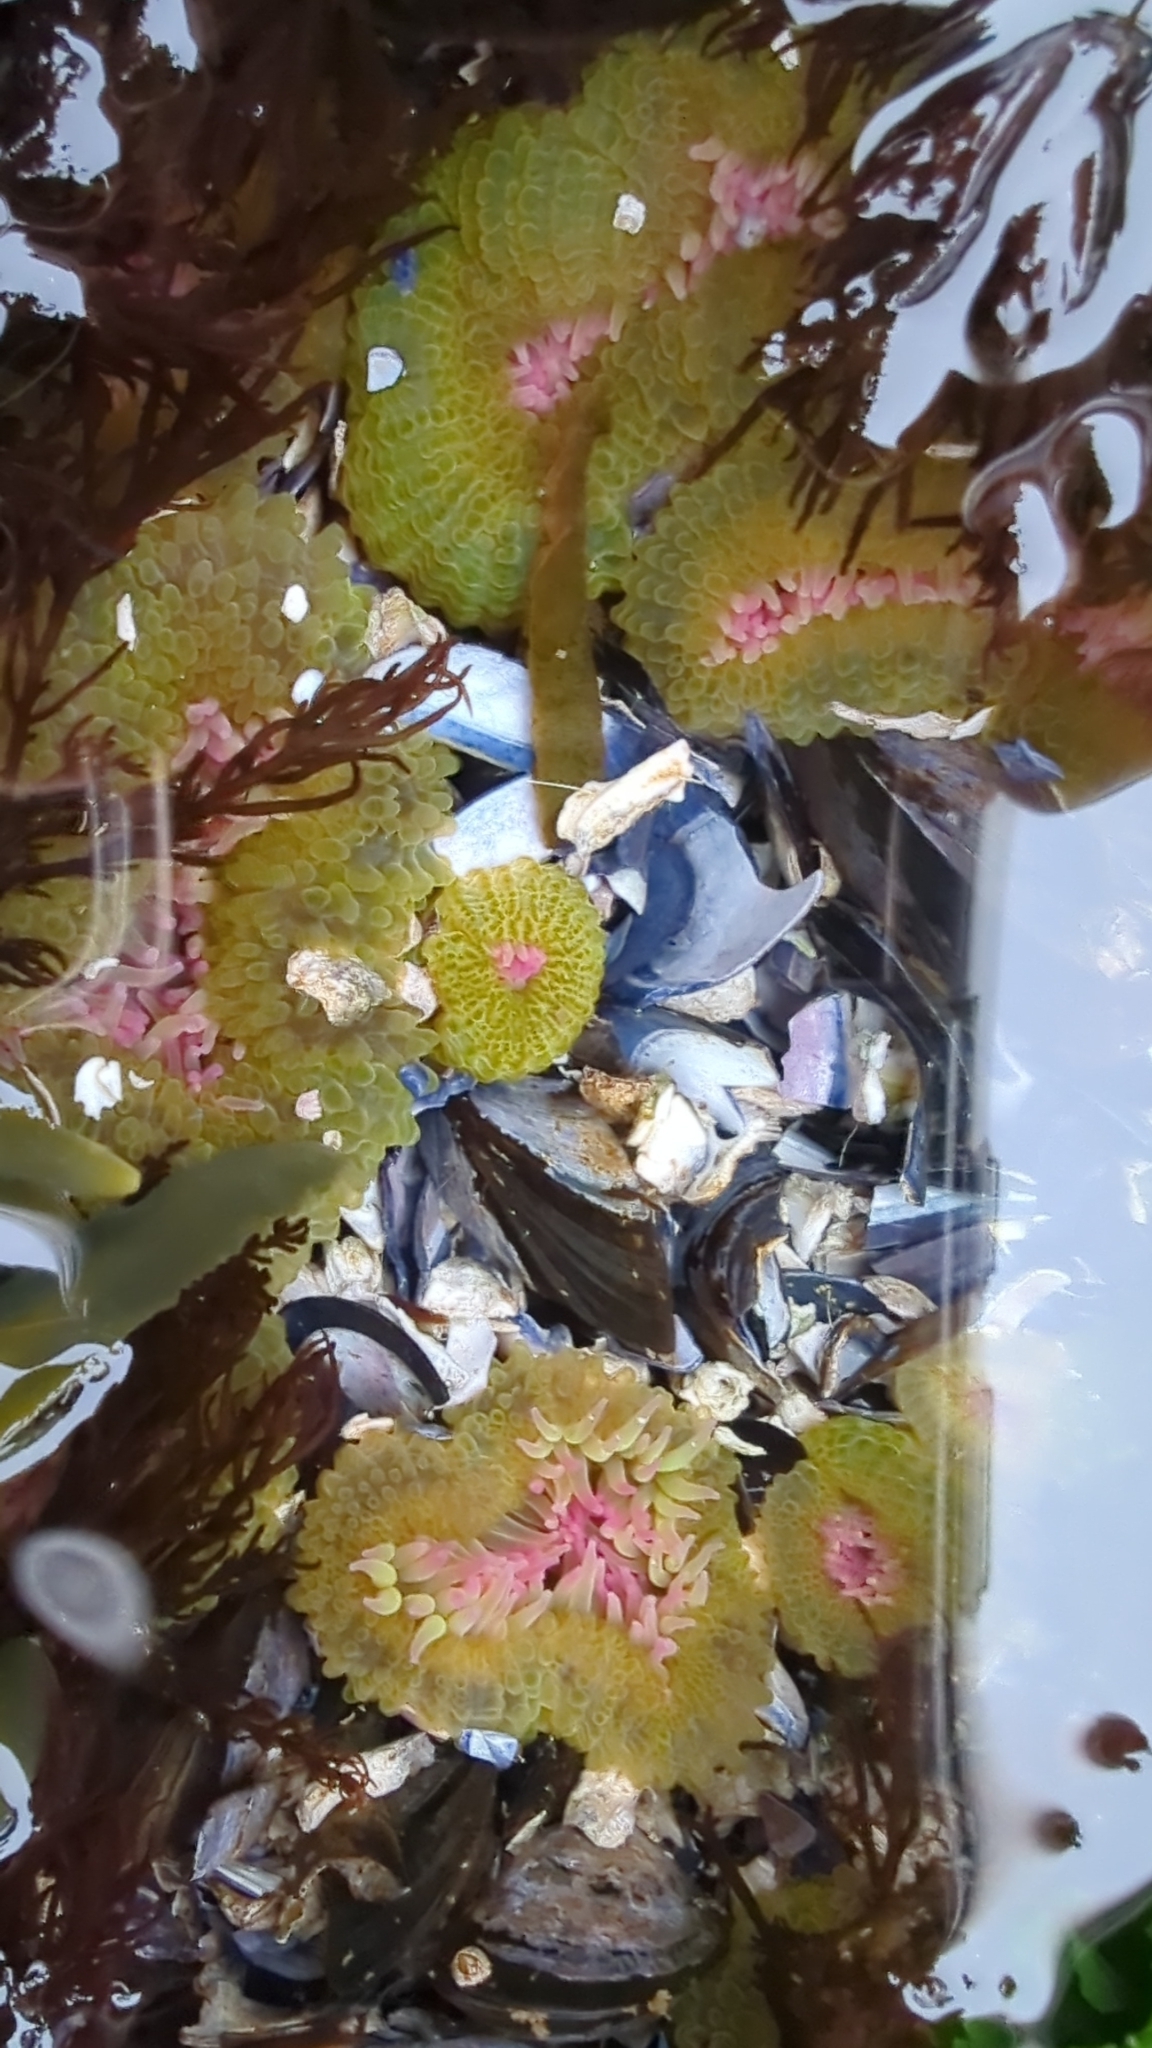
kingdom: Animalia
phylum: Cnidaria
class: Anthozoa
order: Actiniaria
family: Actiniidae
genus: Anthopleura
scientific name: Anthopleura elegantissima
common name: Clonal anemone
